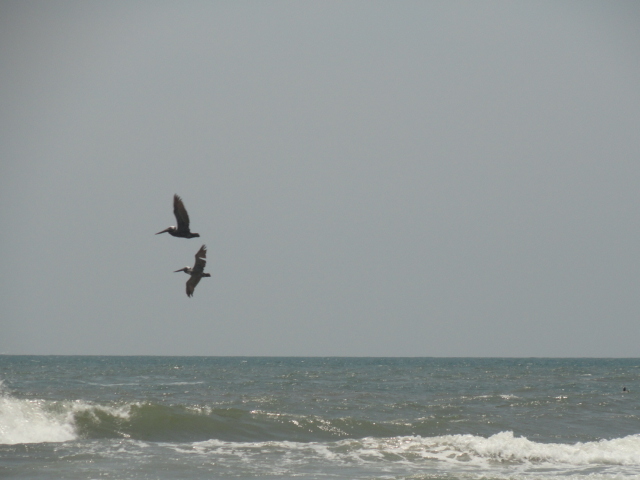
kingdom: Animalia
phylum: Chordata
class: Aves
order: Pelecaniformes
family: Pelecanidae
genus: Pelecanus
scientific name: Pelecanus occidentalis
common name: Brown pelican
